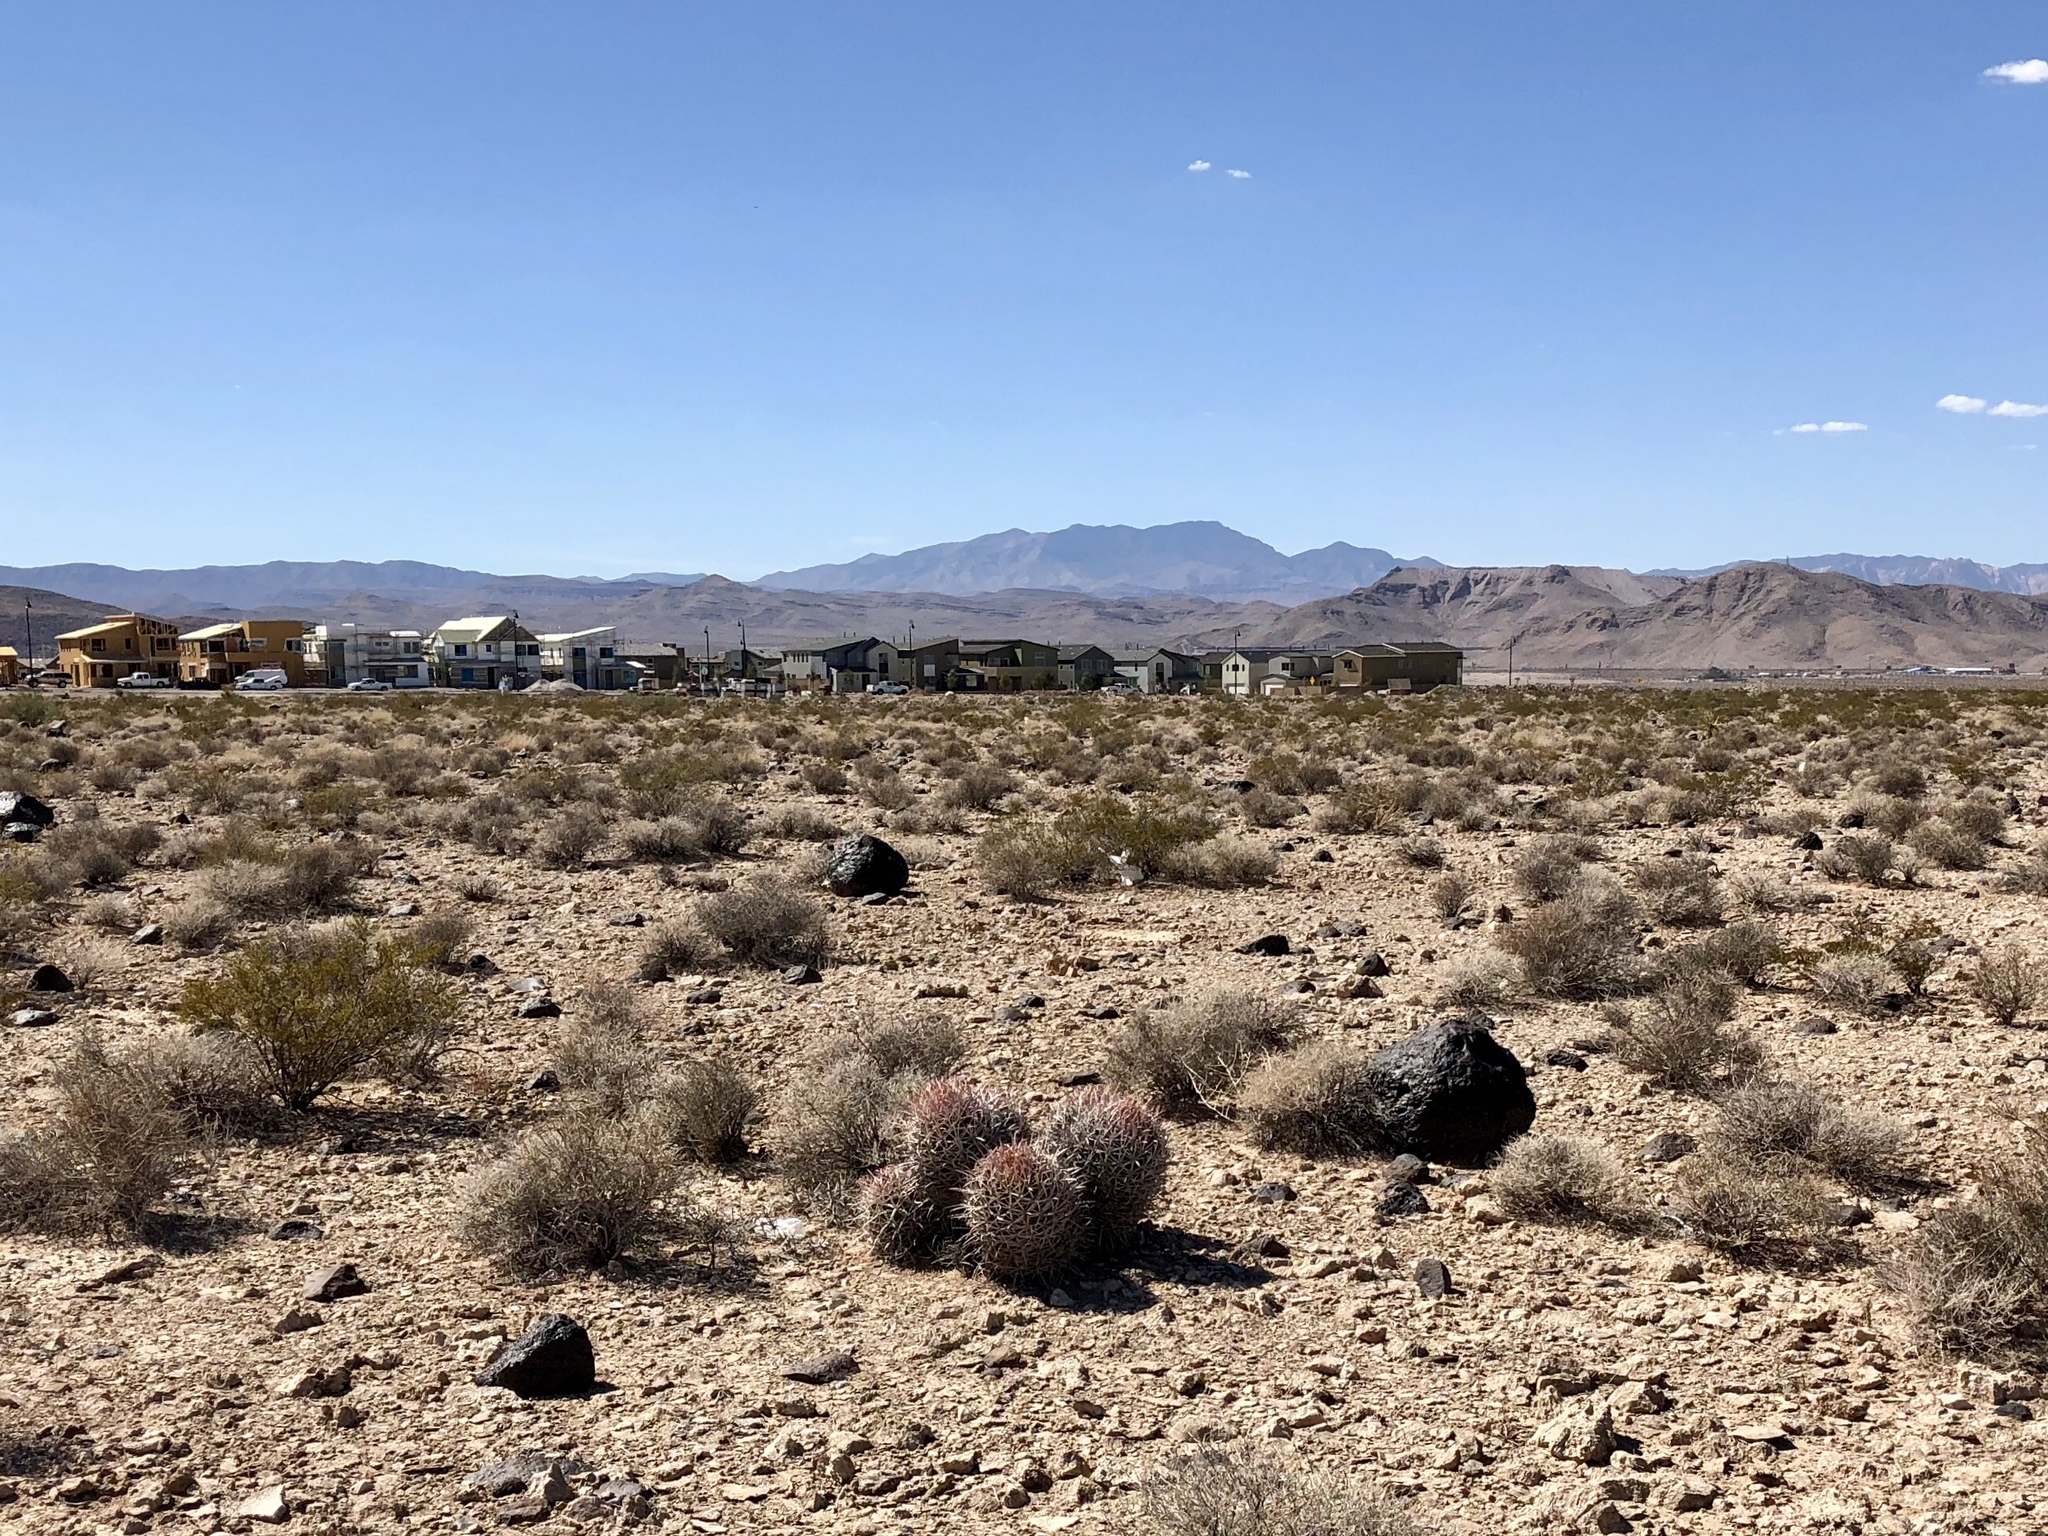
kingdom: Plantae
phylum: Tracheophyta
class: Magnoliopsida
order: Caryophyllales
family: Cactaceae
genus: Echinocactus
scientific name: Echinocactus polycephalus
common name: Cottontop cactus
